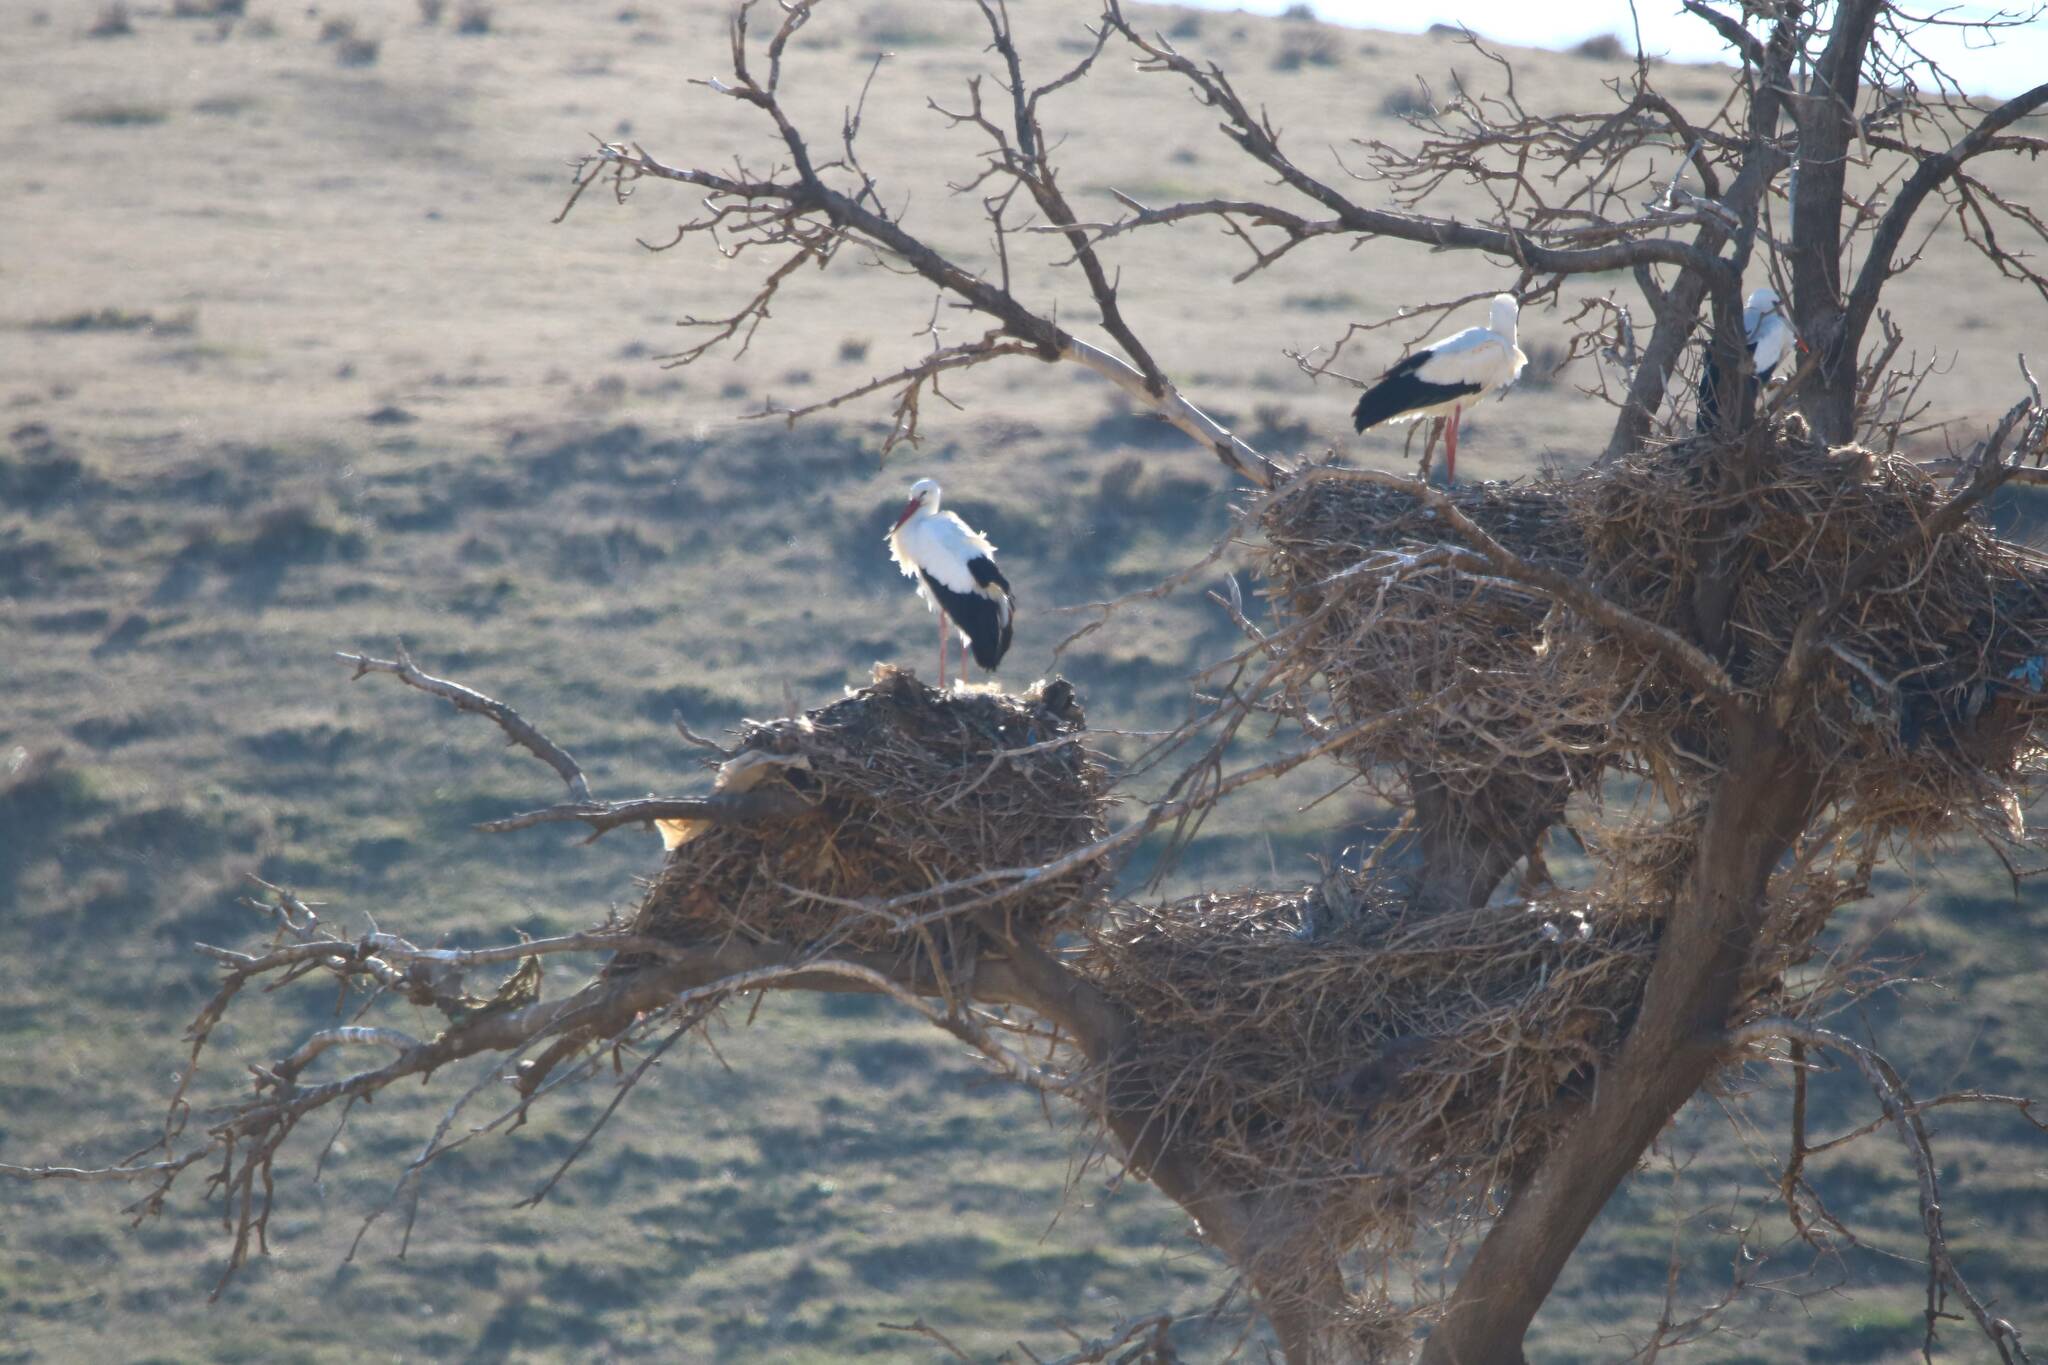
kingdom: Animalia
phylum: Chordata
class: Aves
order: Ciconiiformes
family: Ciconiidae
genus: Ciconia
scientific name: Ciconia ciconia
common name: White stork
